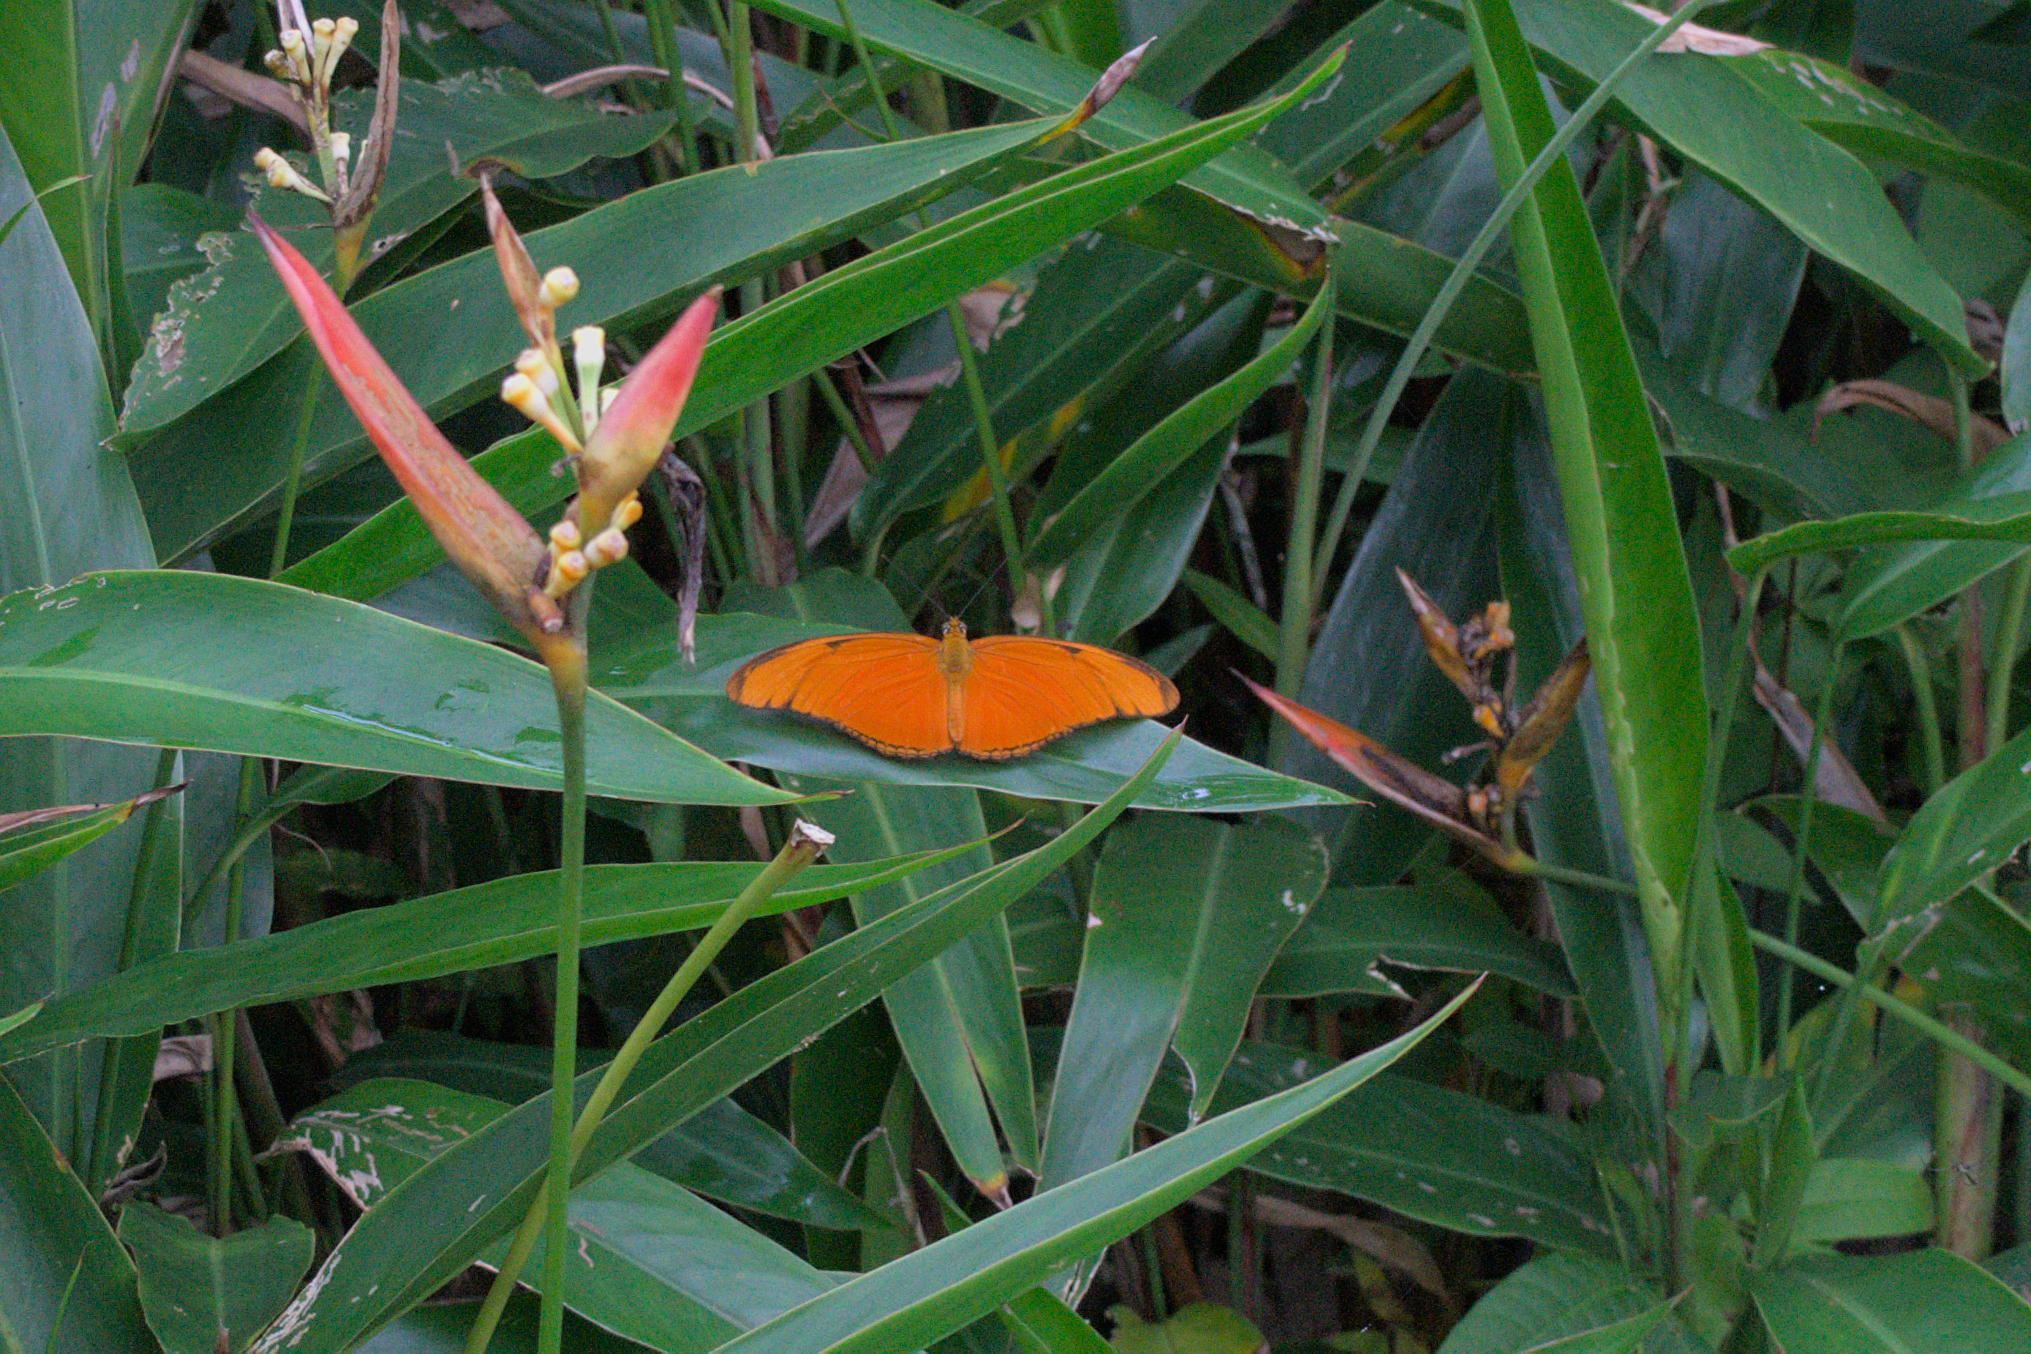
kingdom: Animalia
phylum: Arthropoda
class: Insecta
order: Lepidoptera
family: Nymphalidae
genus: Dryas
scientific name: Dryas iulia
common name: Flambeau
